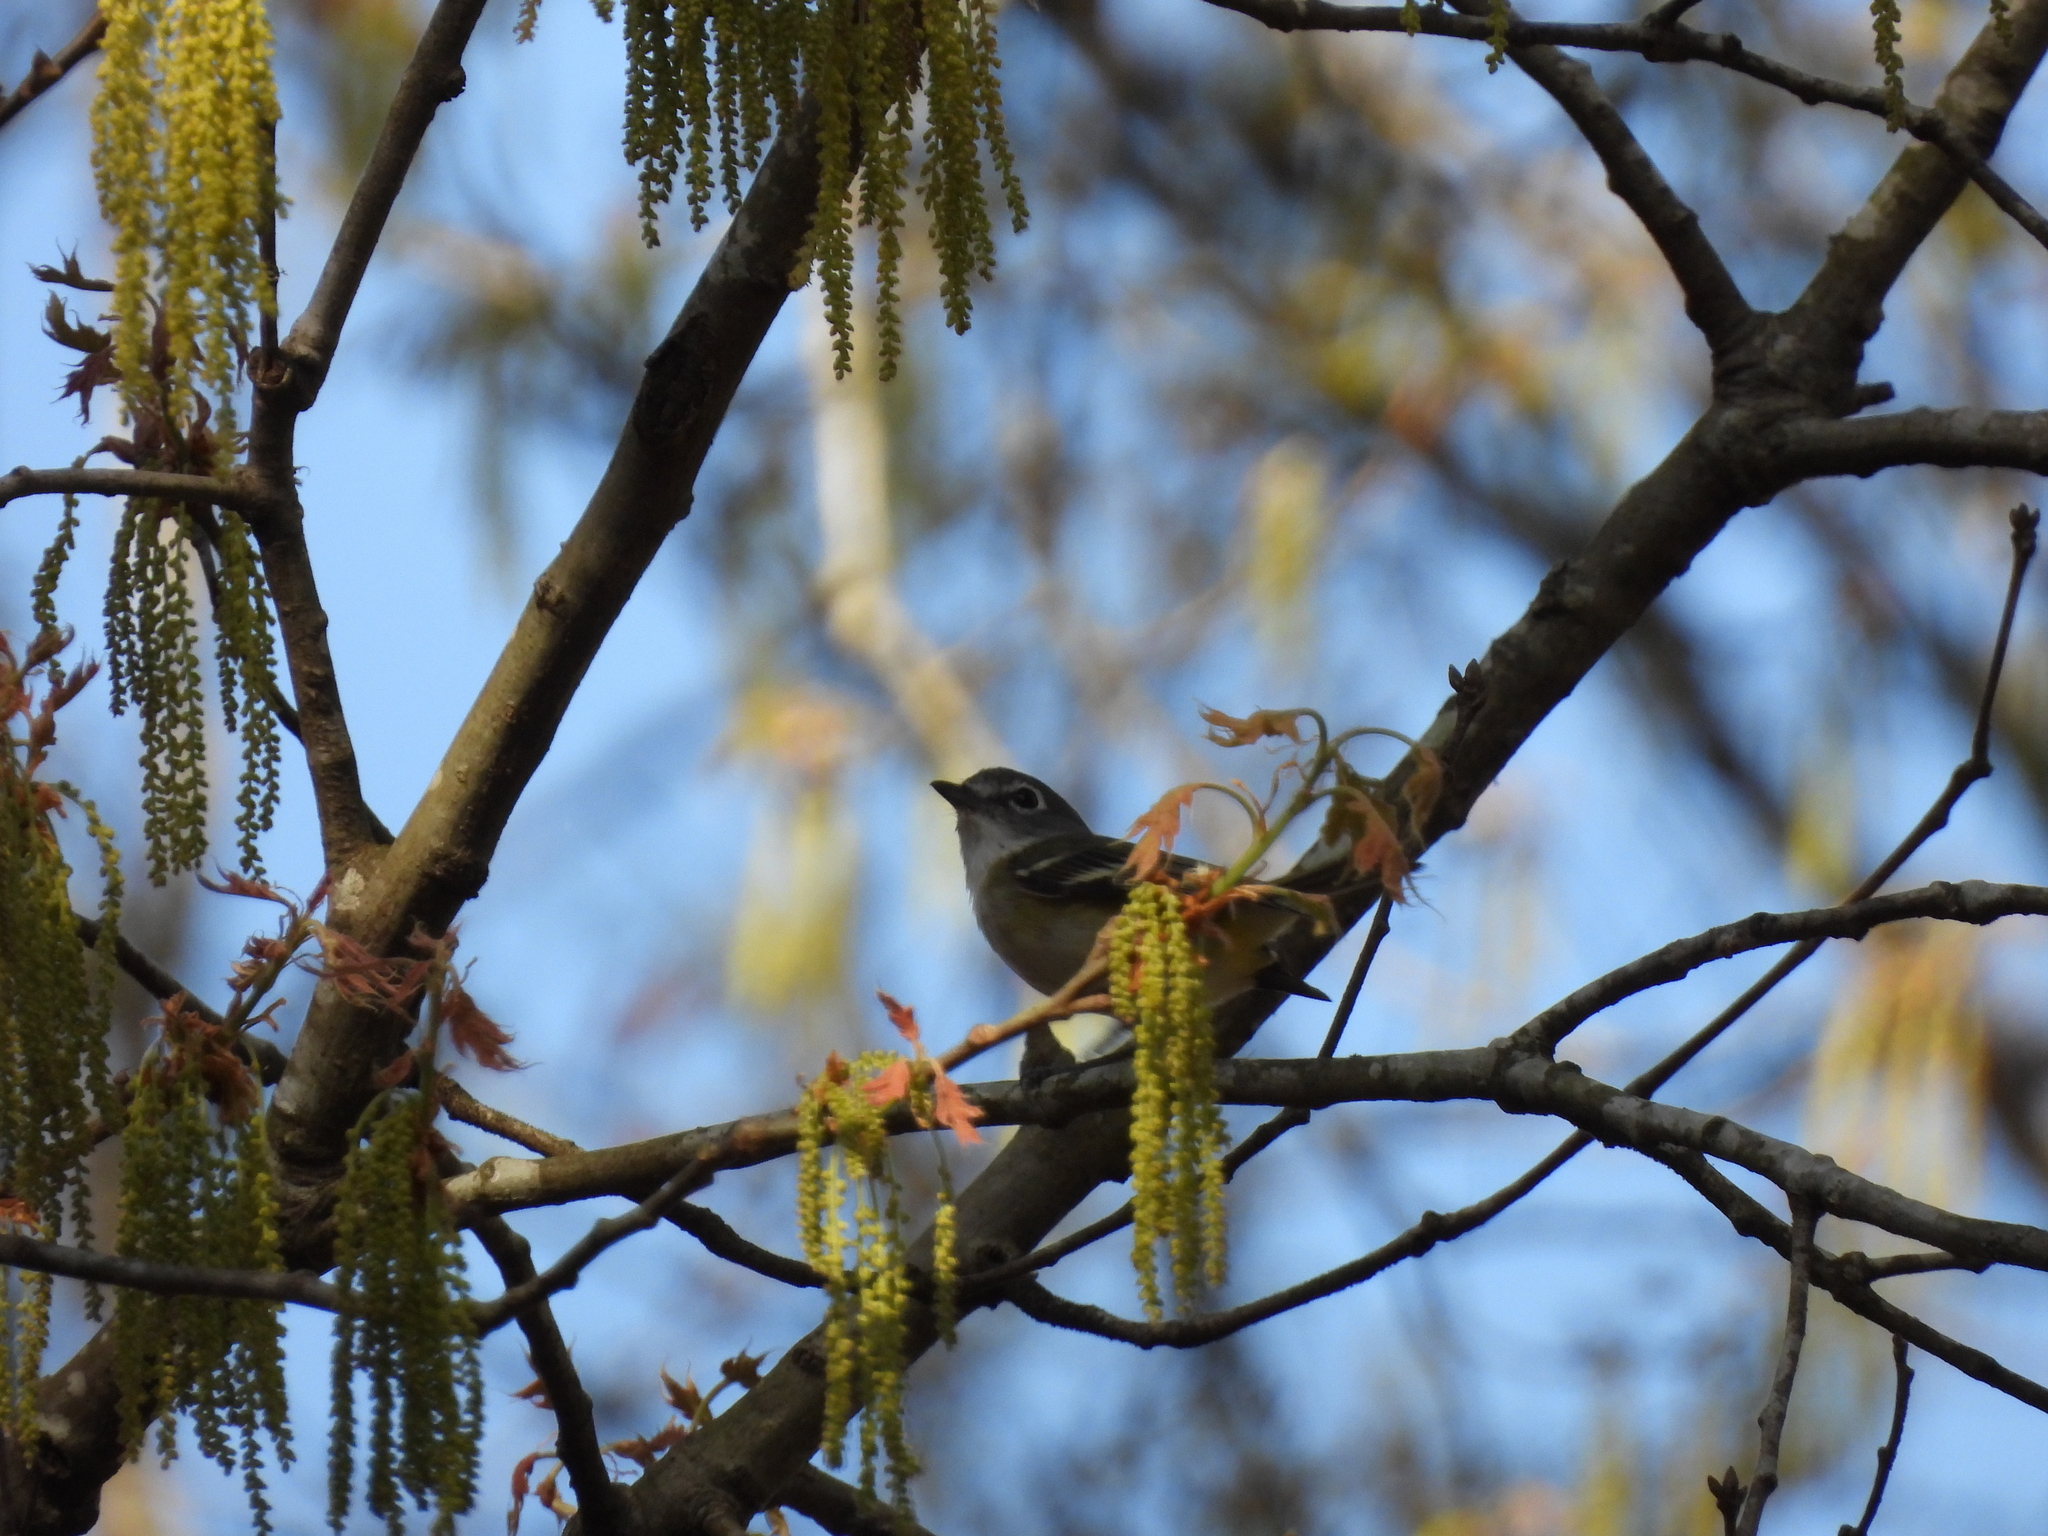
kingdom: Animalia
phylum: Chordata
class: Aves
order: Passeriformes
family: Vireonidae
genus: Vireo
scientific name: Vireo solitarius
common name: Blue-headed vireo
